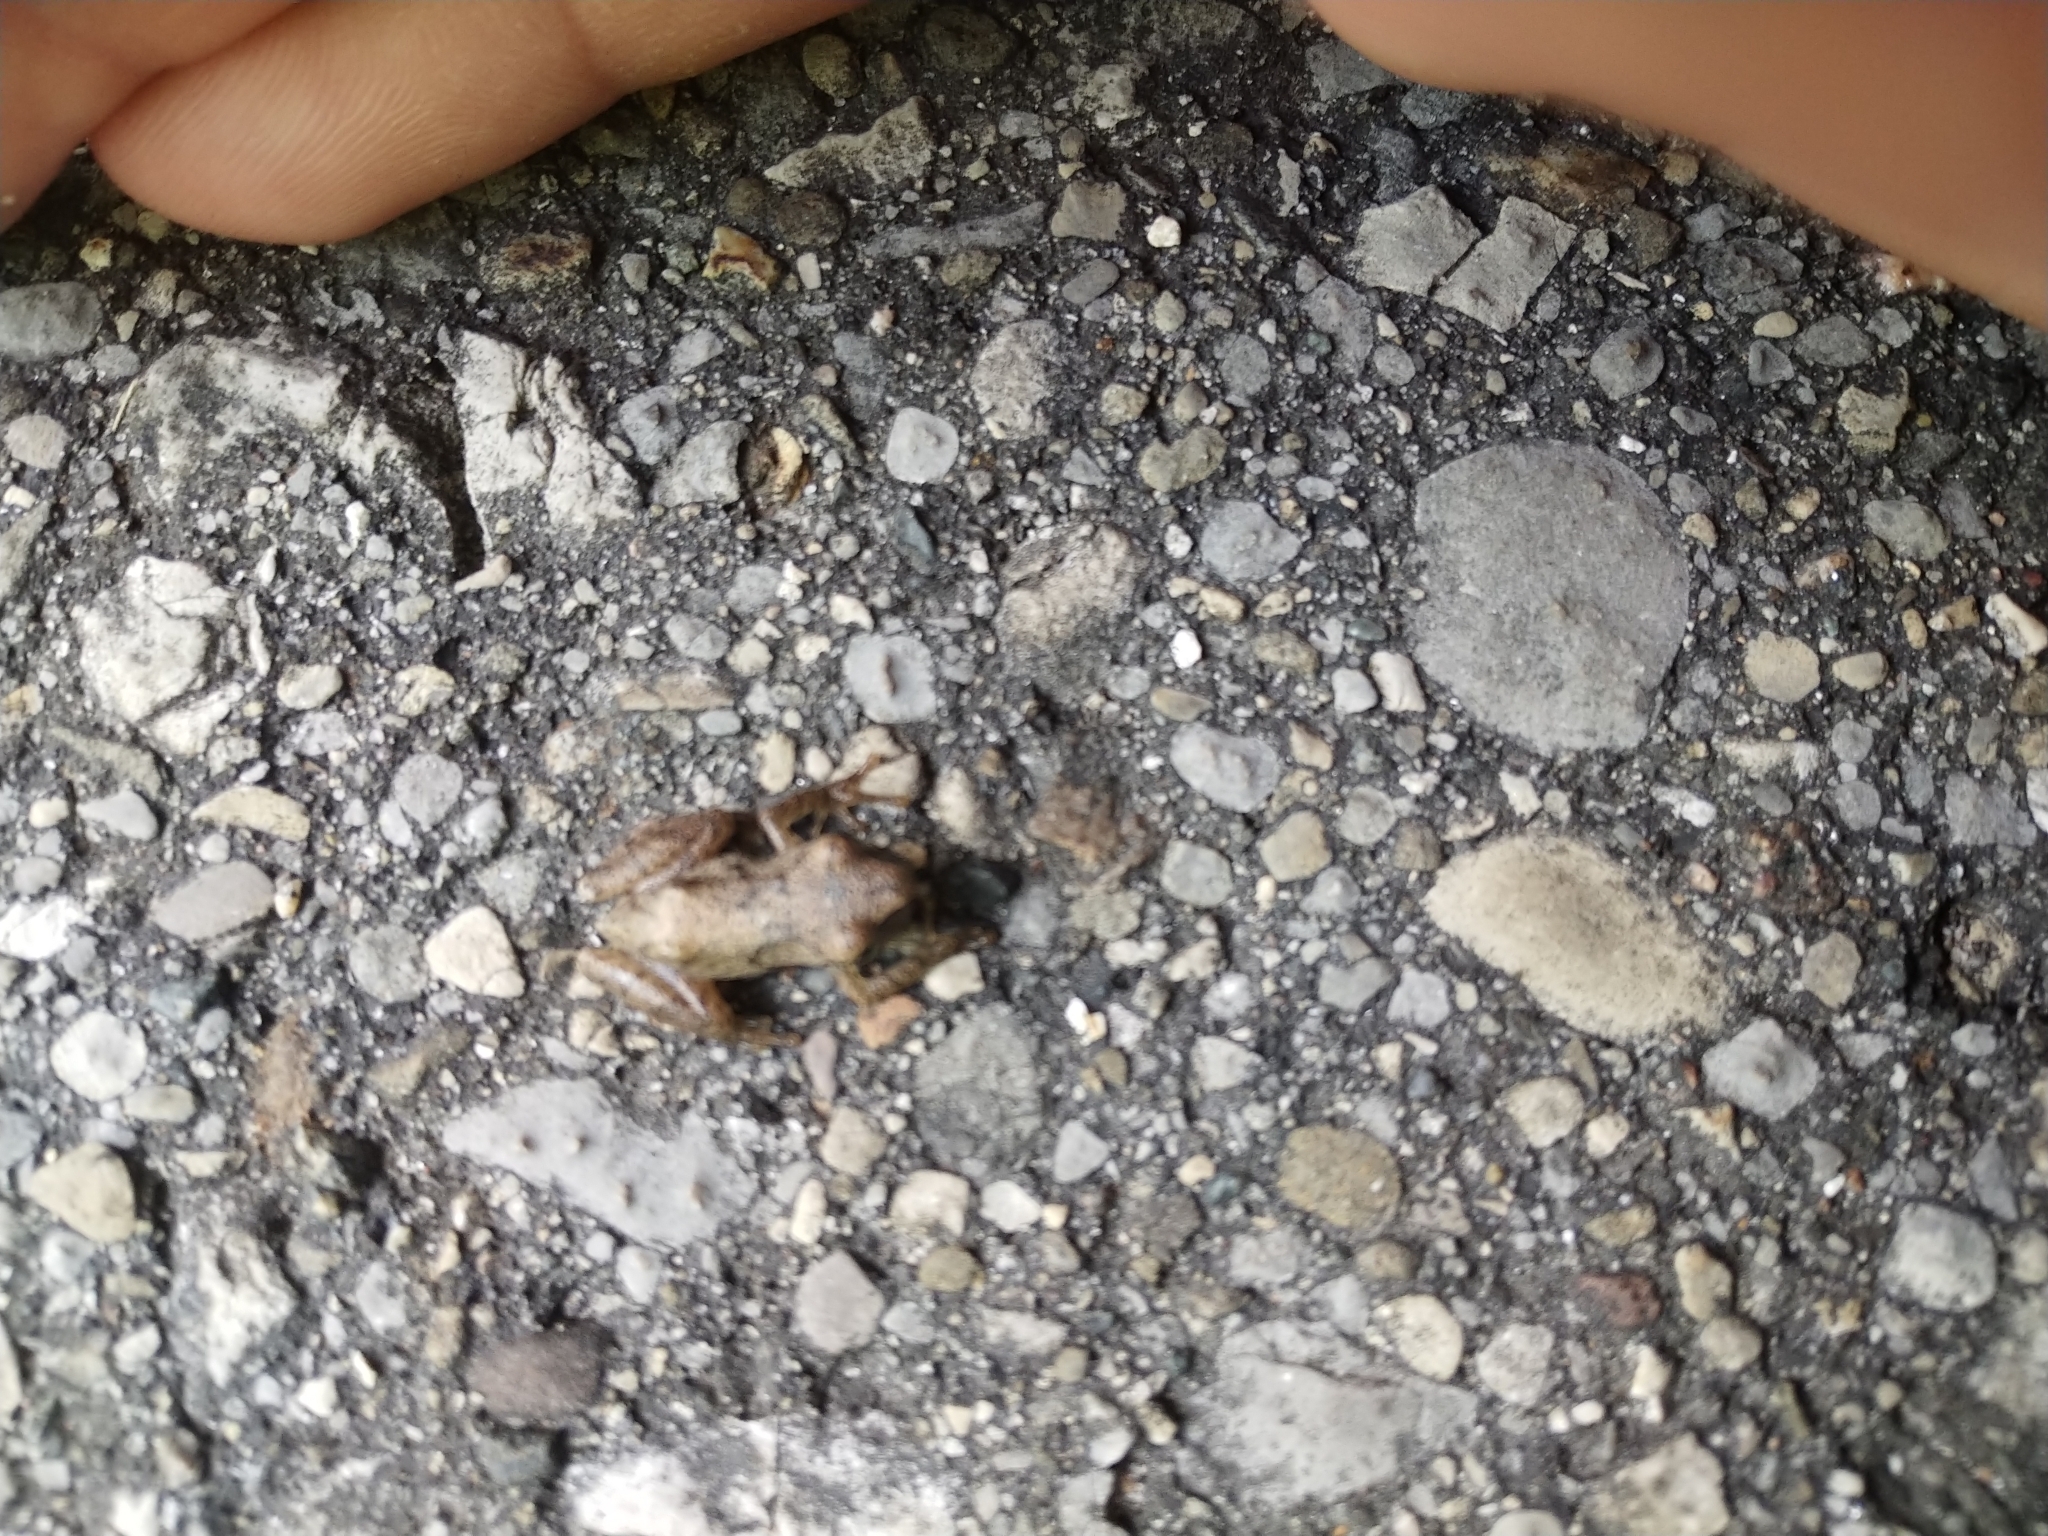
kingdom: Animalia
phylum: Chordata
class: Amphibia
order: Anura
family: Hylidae
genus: Pseudacris
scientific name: Pseudacris crucifer
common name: Spring peeper
